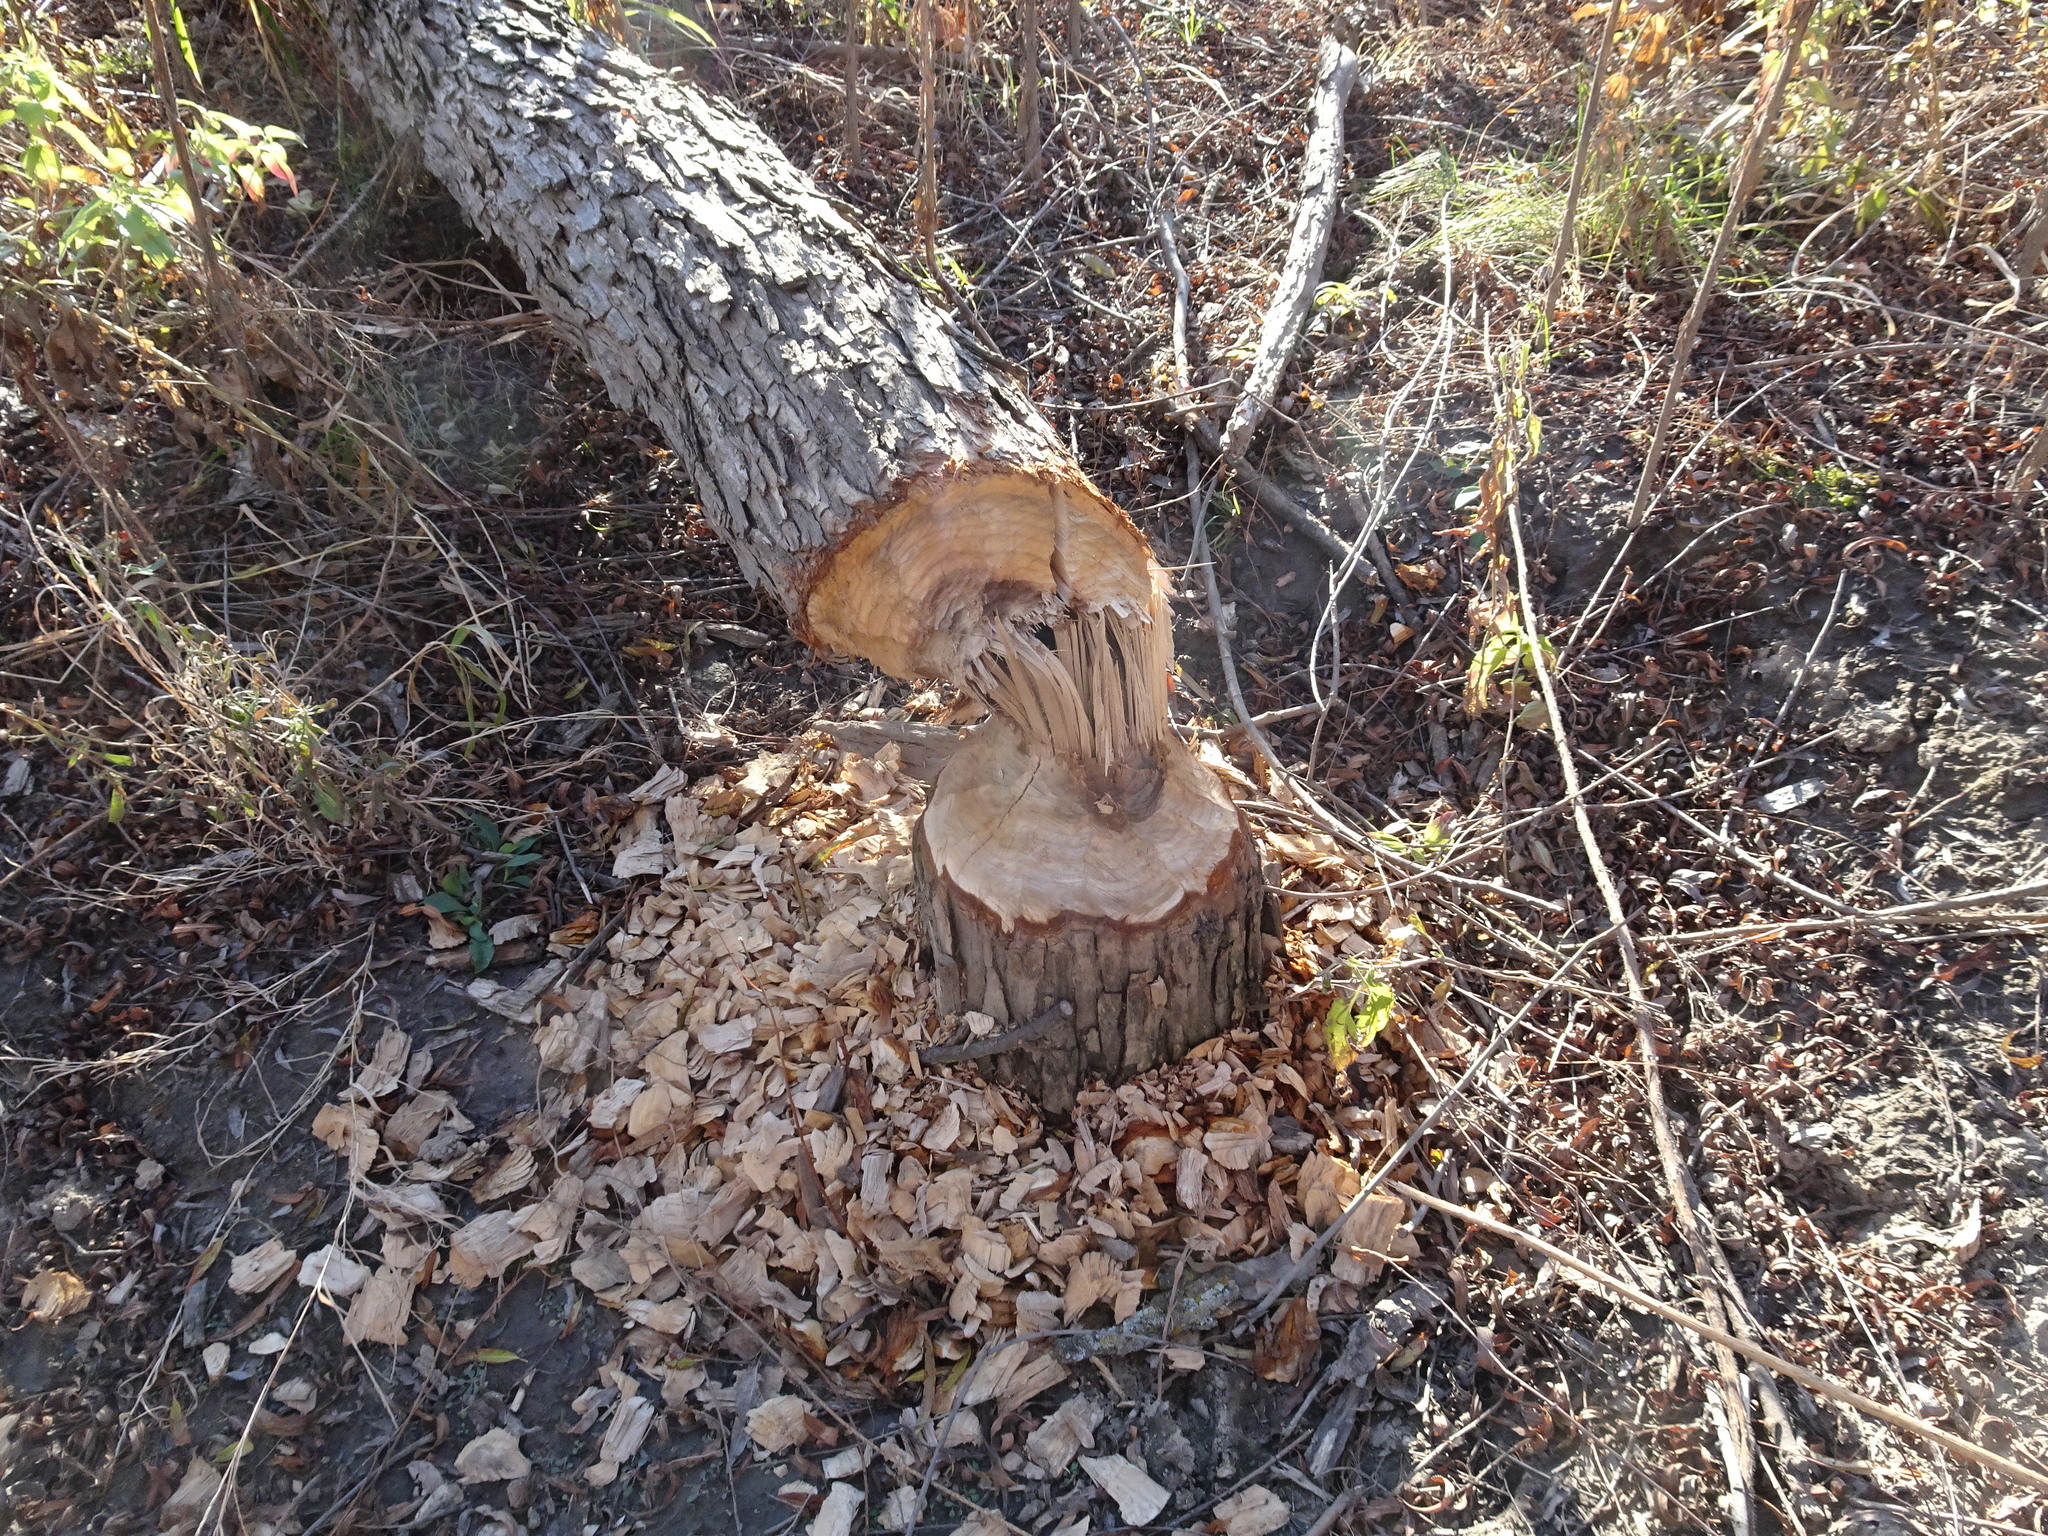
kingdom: Animalia
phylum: Chordata
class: Mammalia
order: Rodentia
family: Castoridae
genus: Castor
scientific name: Castor canadensis
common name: American beaver
